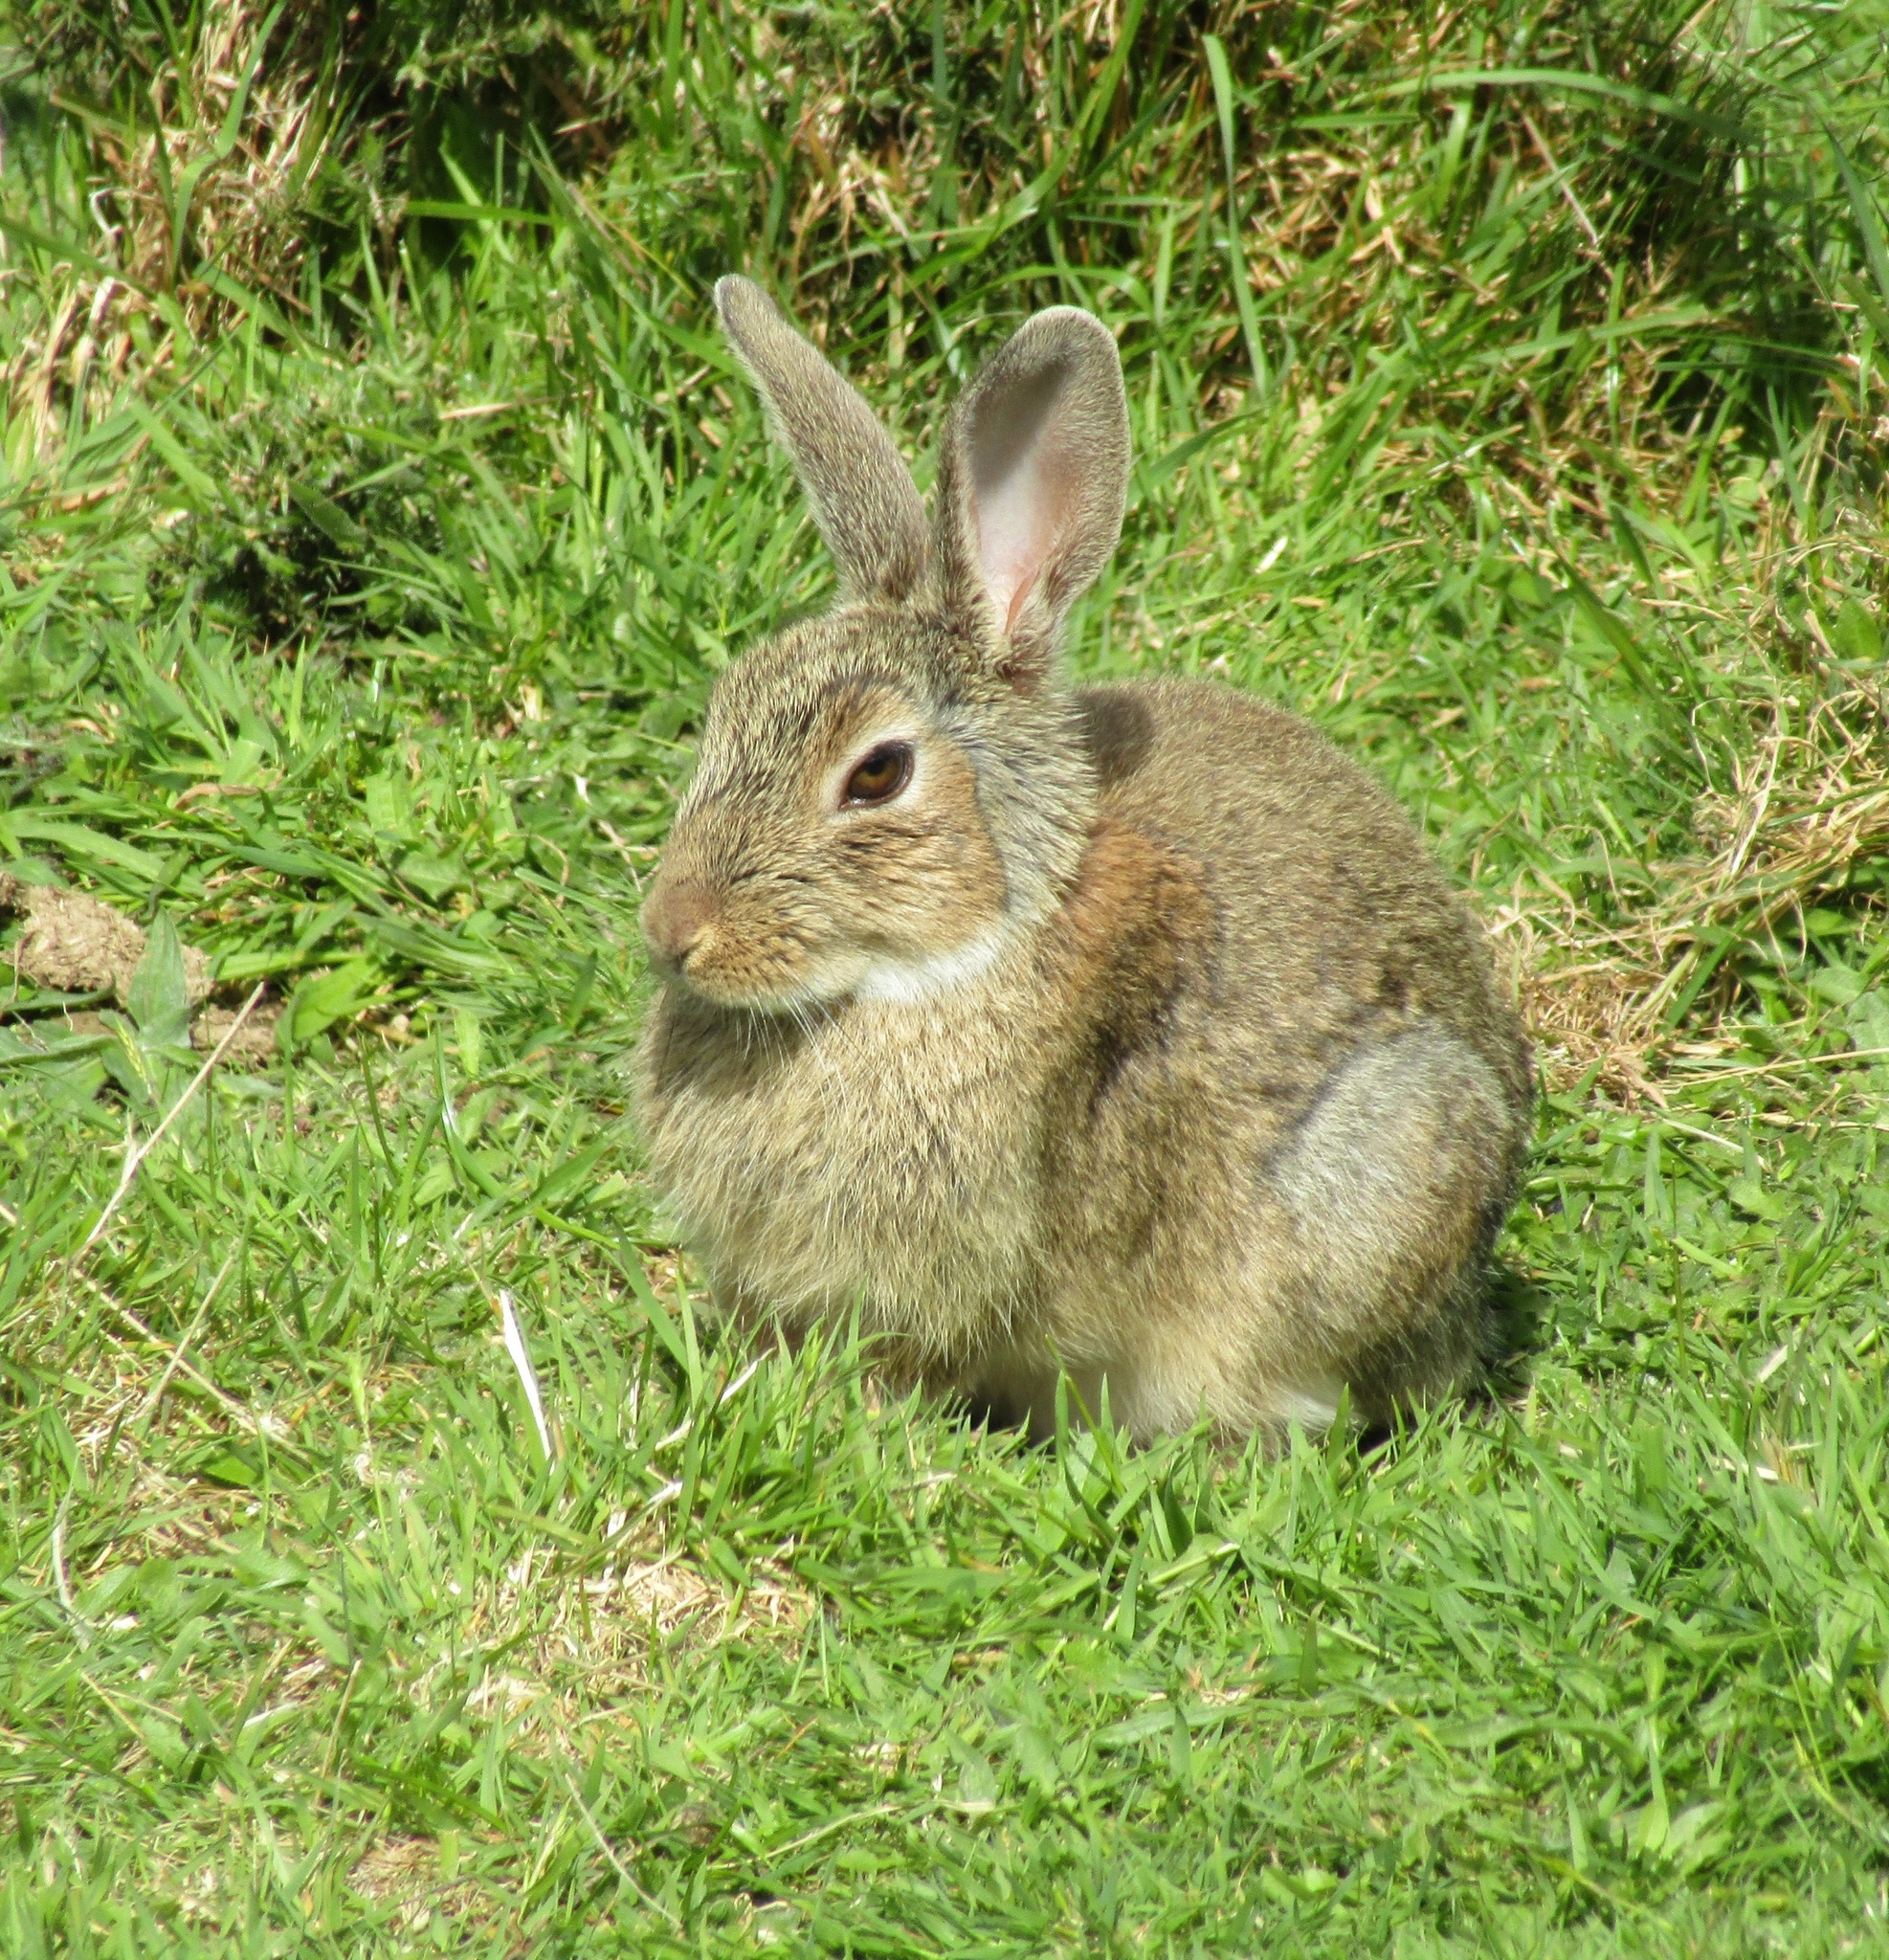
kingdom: Animalia
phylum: Chordata
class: Mammalia
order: Lagomorpha
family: Leporidae
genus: Oryctolagus
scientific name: Oryctolagus cuniculus
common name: European rabbit
